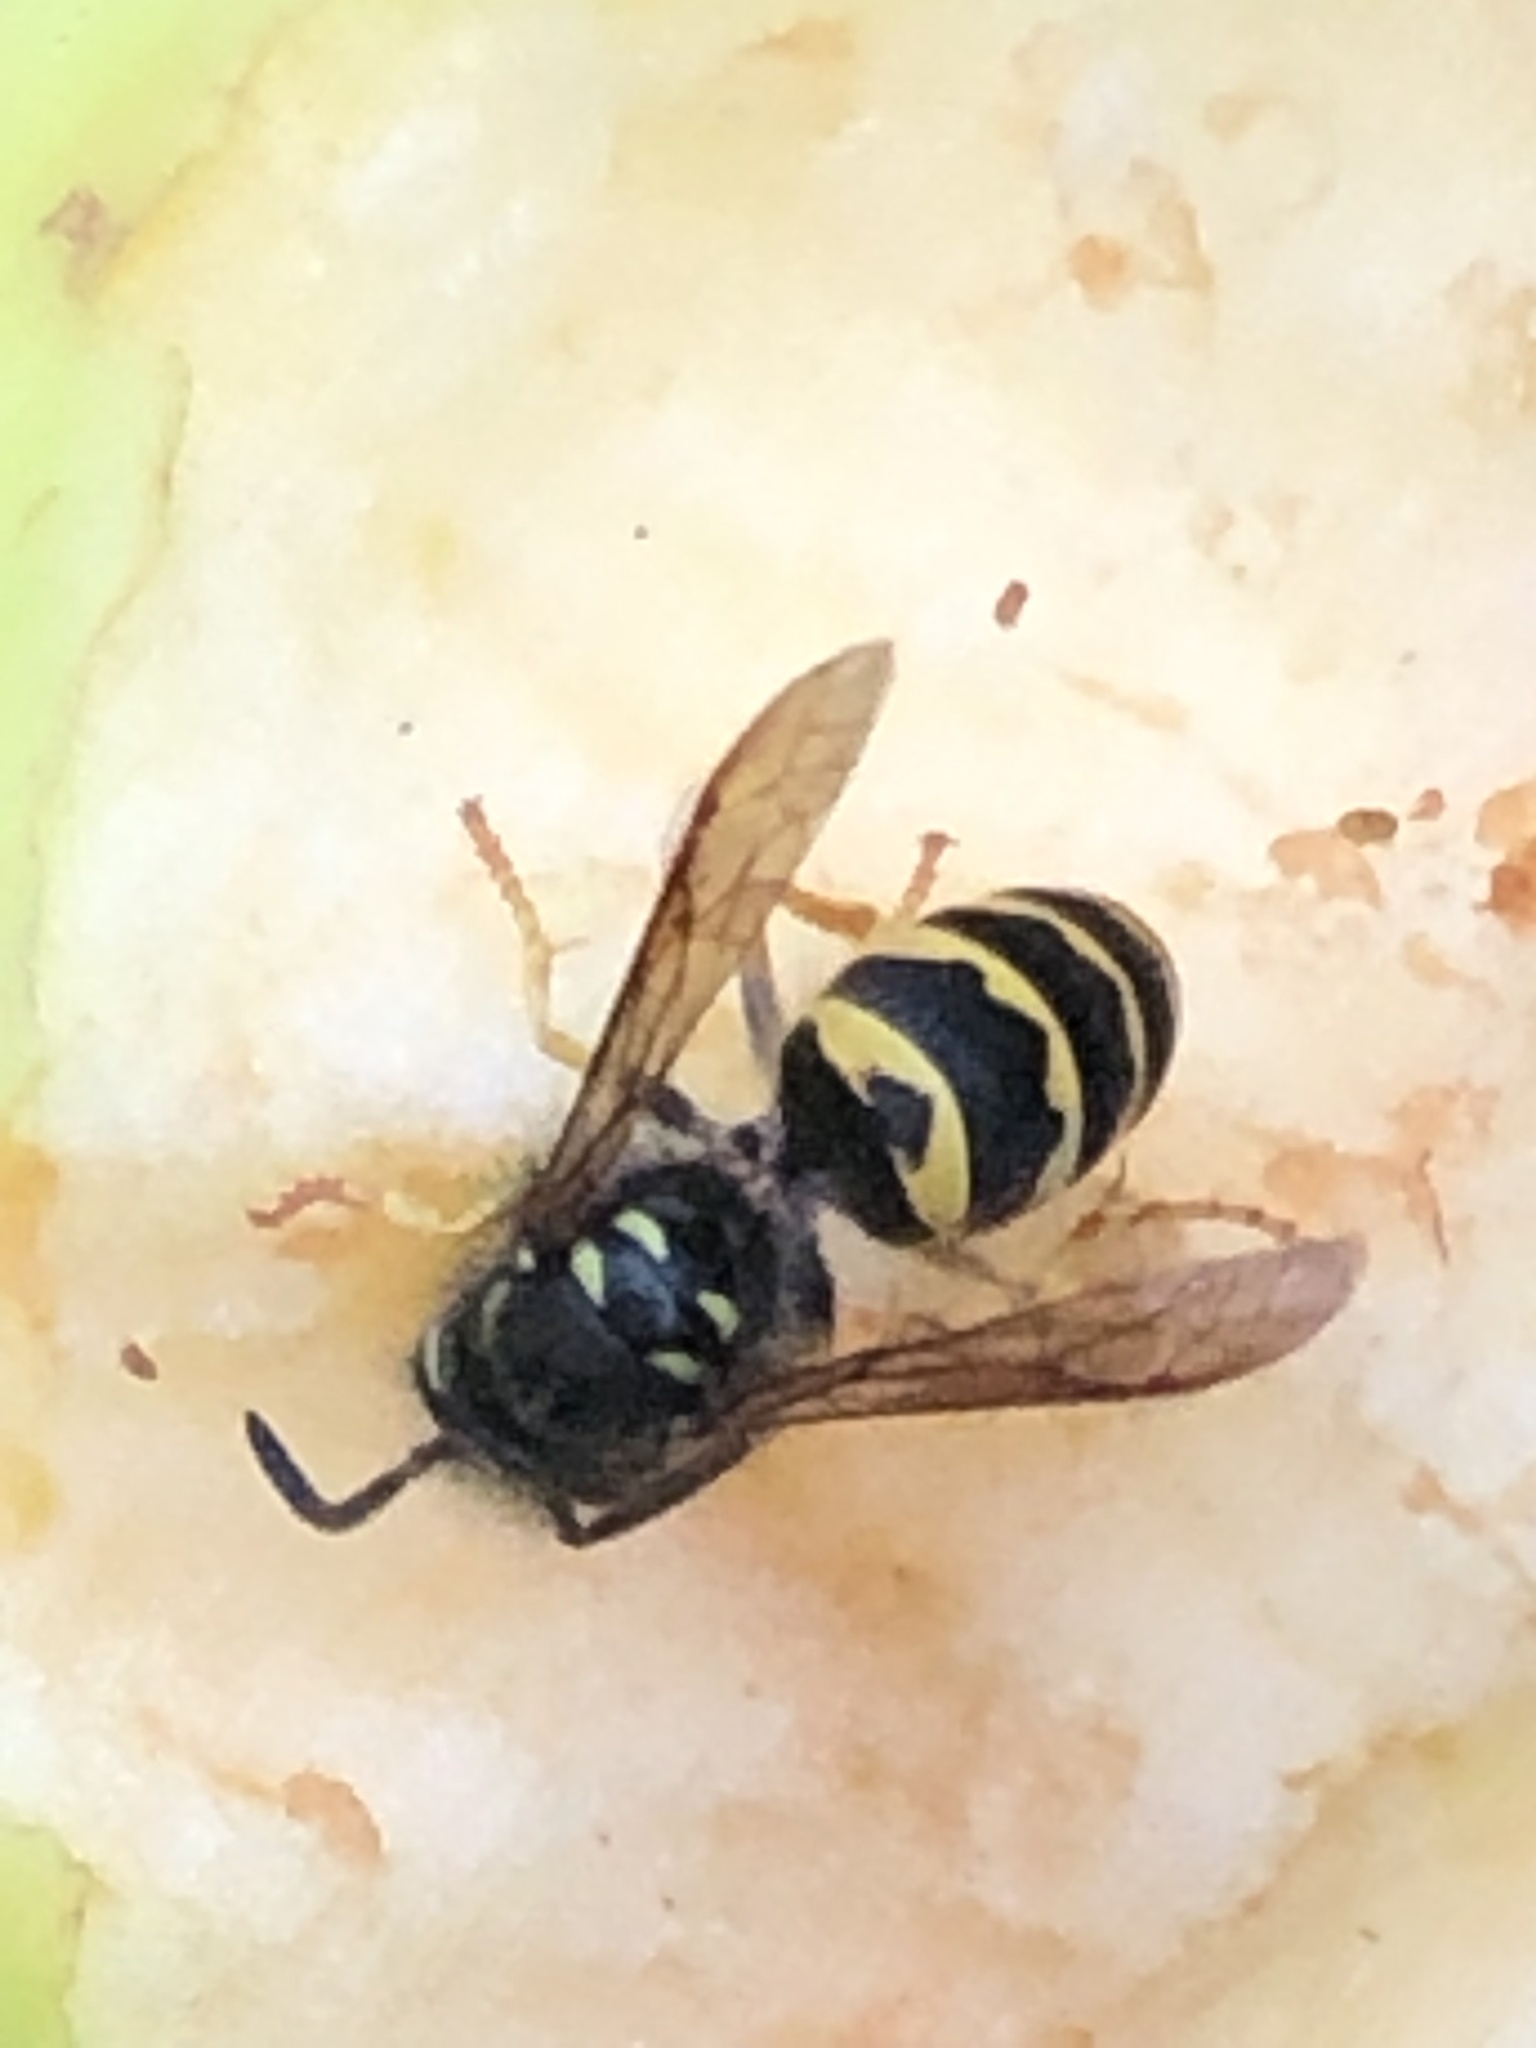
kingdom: Animalia
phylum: Arthropoda
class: Insecta
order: Hymenoptera
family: Vespidae
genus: Vespula
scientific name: Vespula
